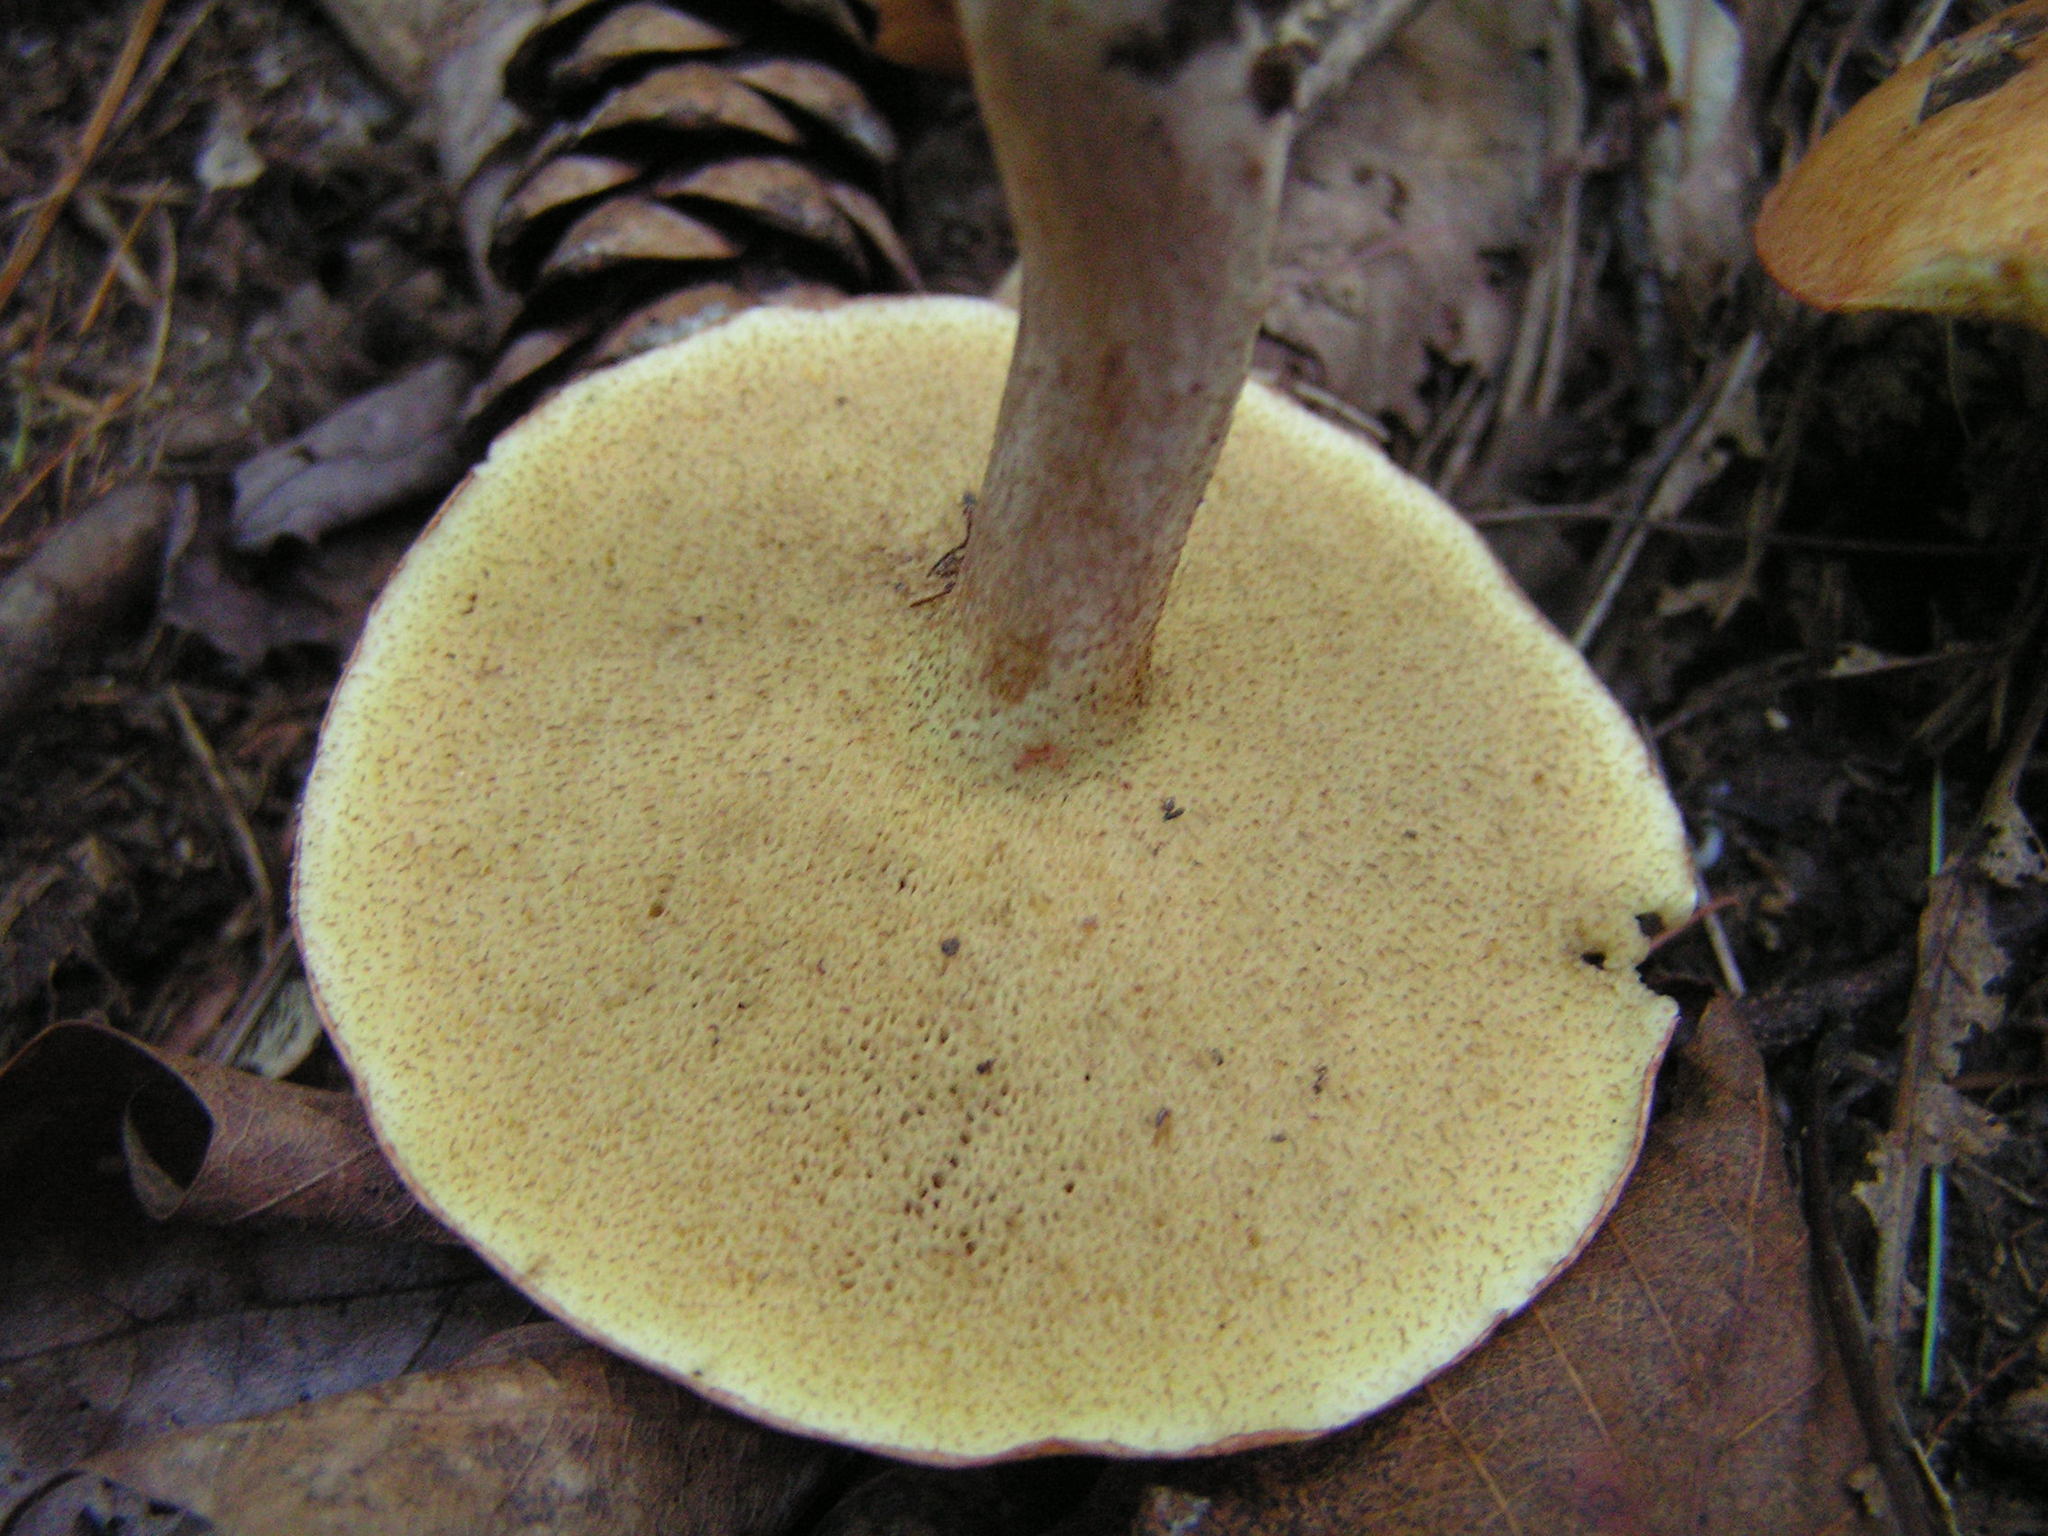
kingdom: Fungi
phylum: Basidiomycota
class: Agaricomycetes
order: Boletales
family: Suillaceae
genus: Fuscoboletinus
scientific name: Fuscoboletinus weaverae
